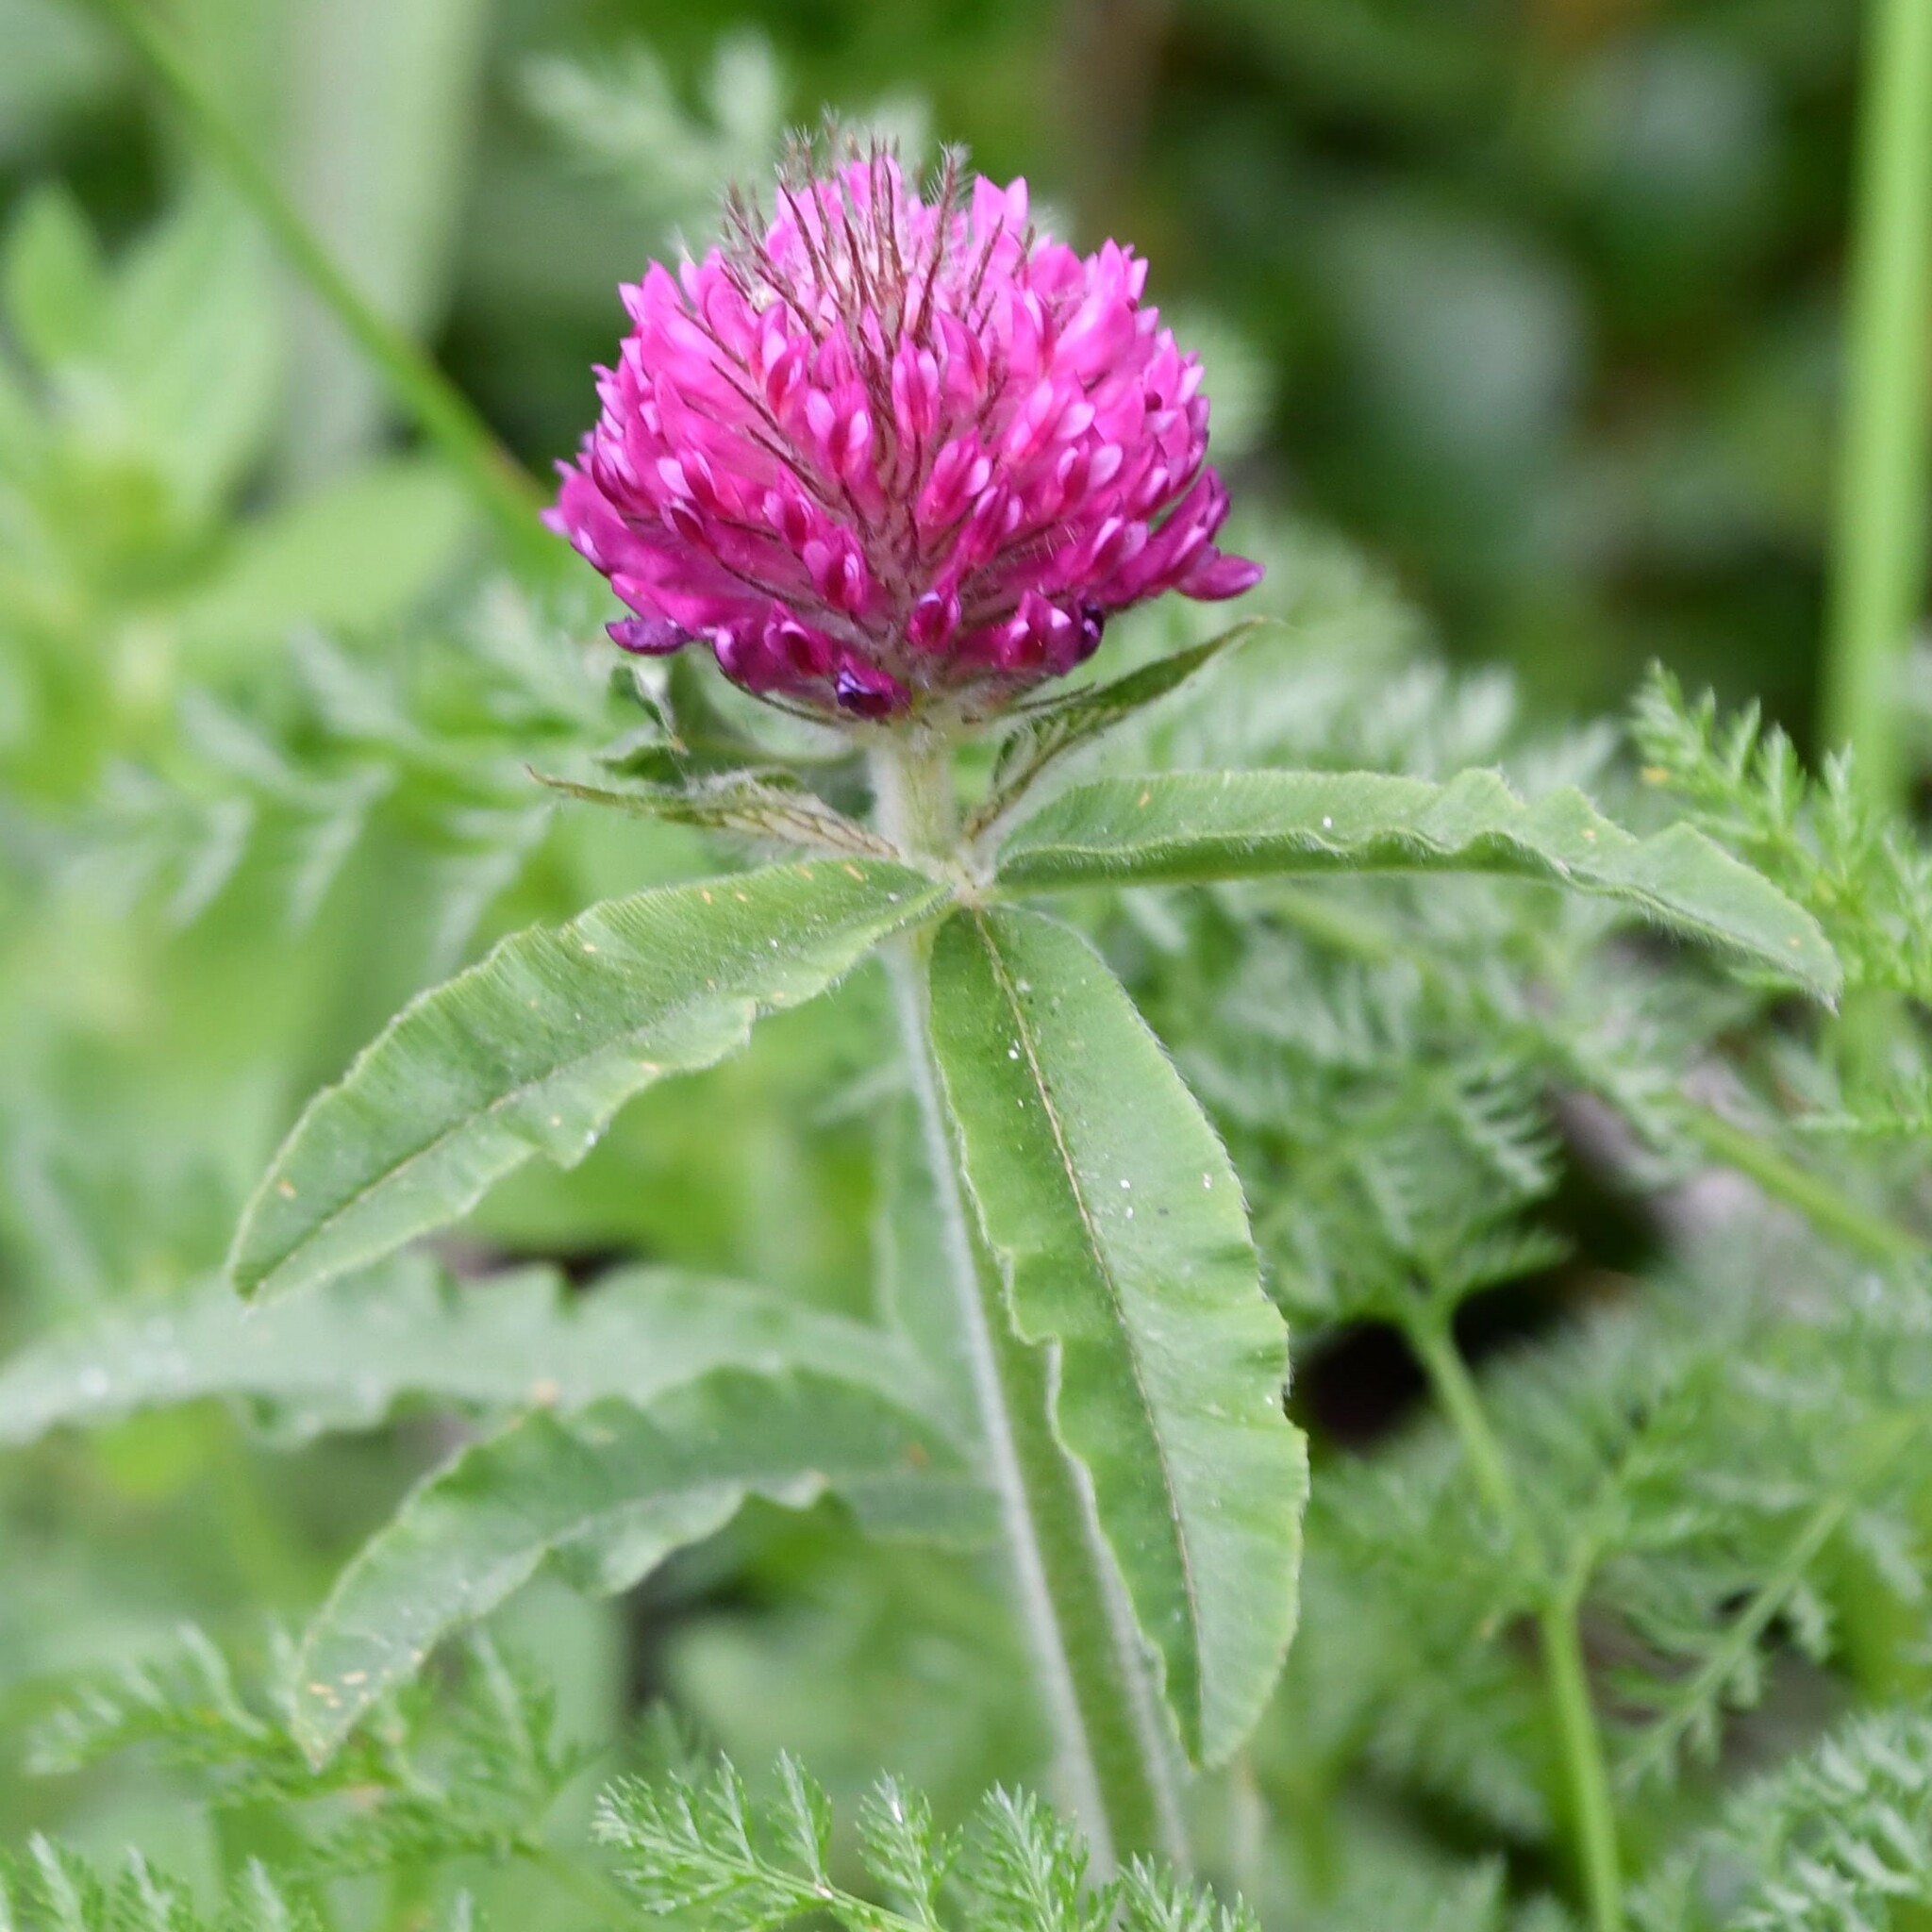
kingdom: Plantae
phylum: Tracheophyta
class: Magnoliopsida
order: Fabales
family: Fabaceae
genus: Trifolium
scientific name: Trifolium alpestre
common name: Owl-head clover
